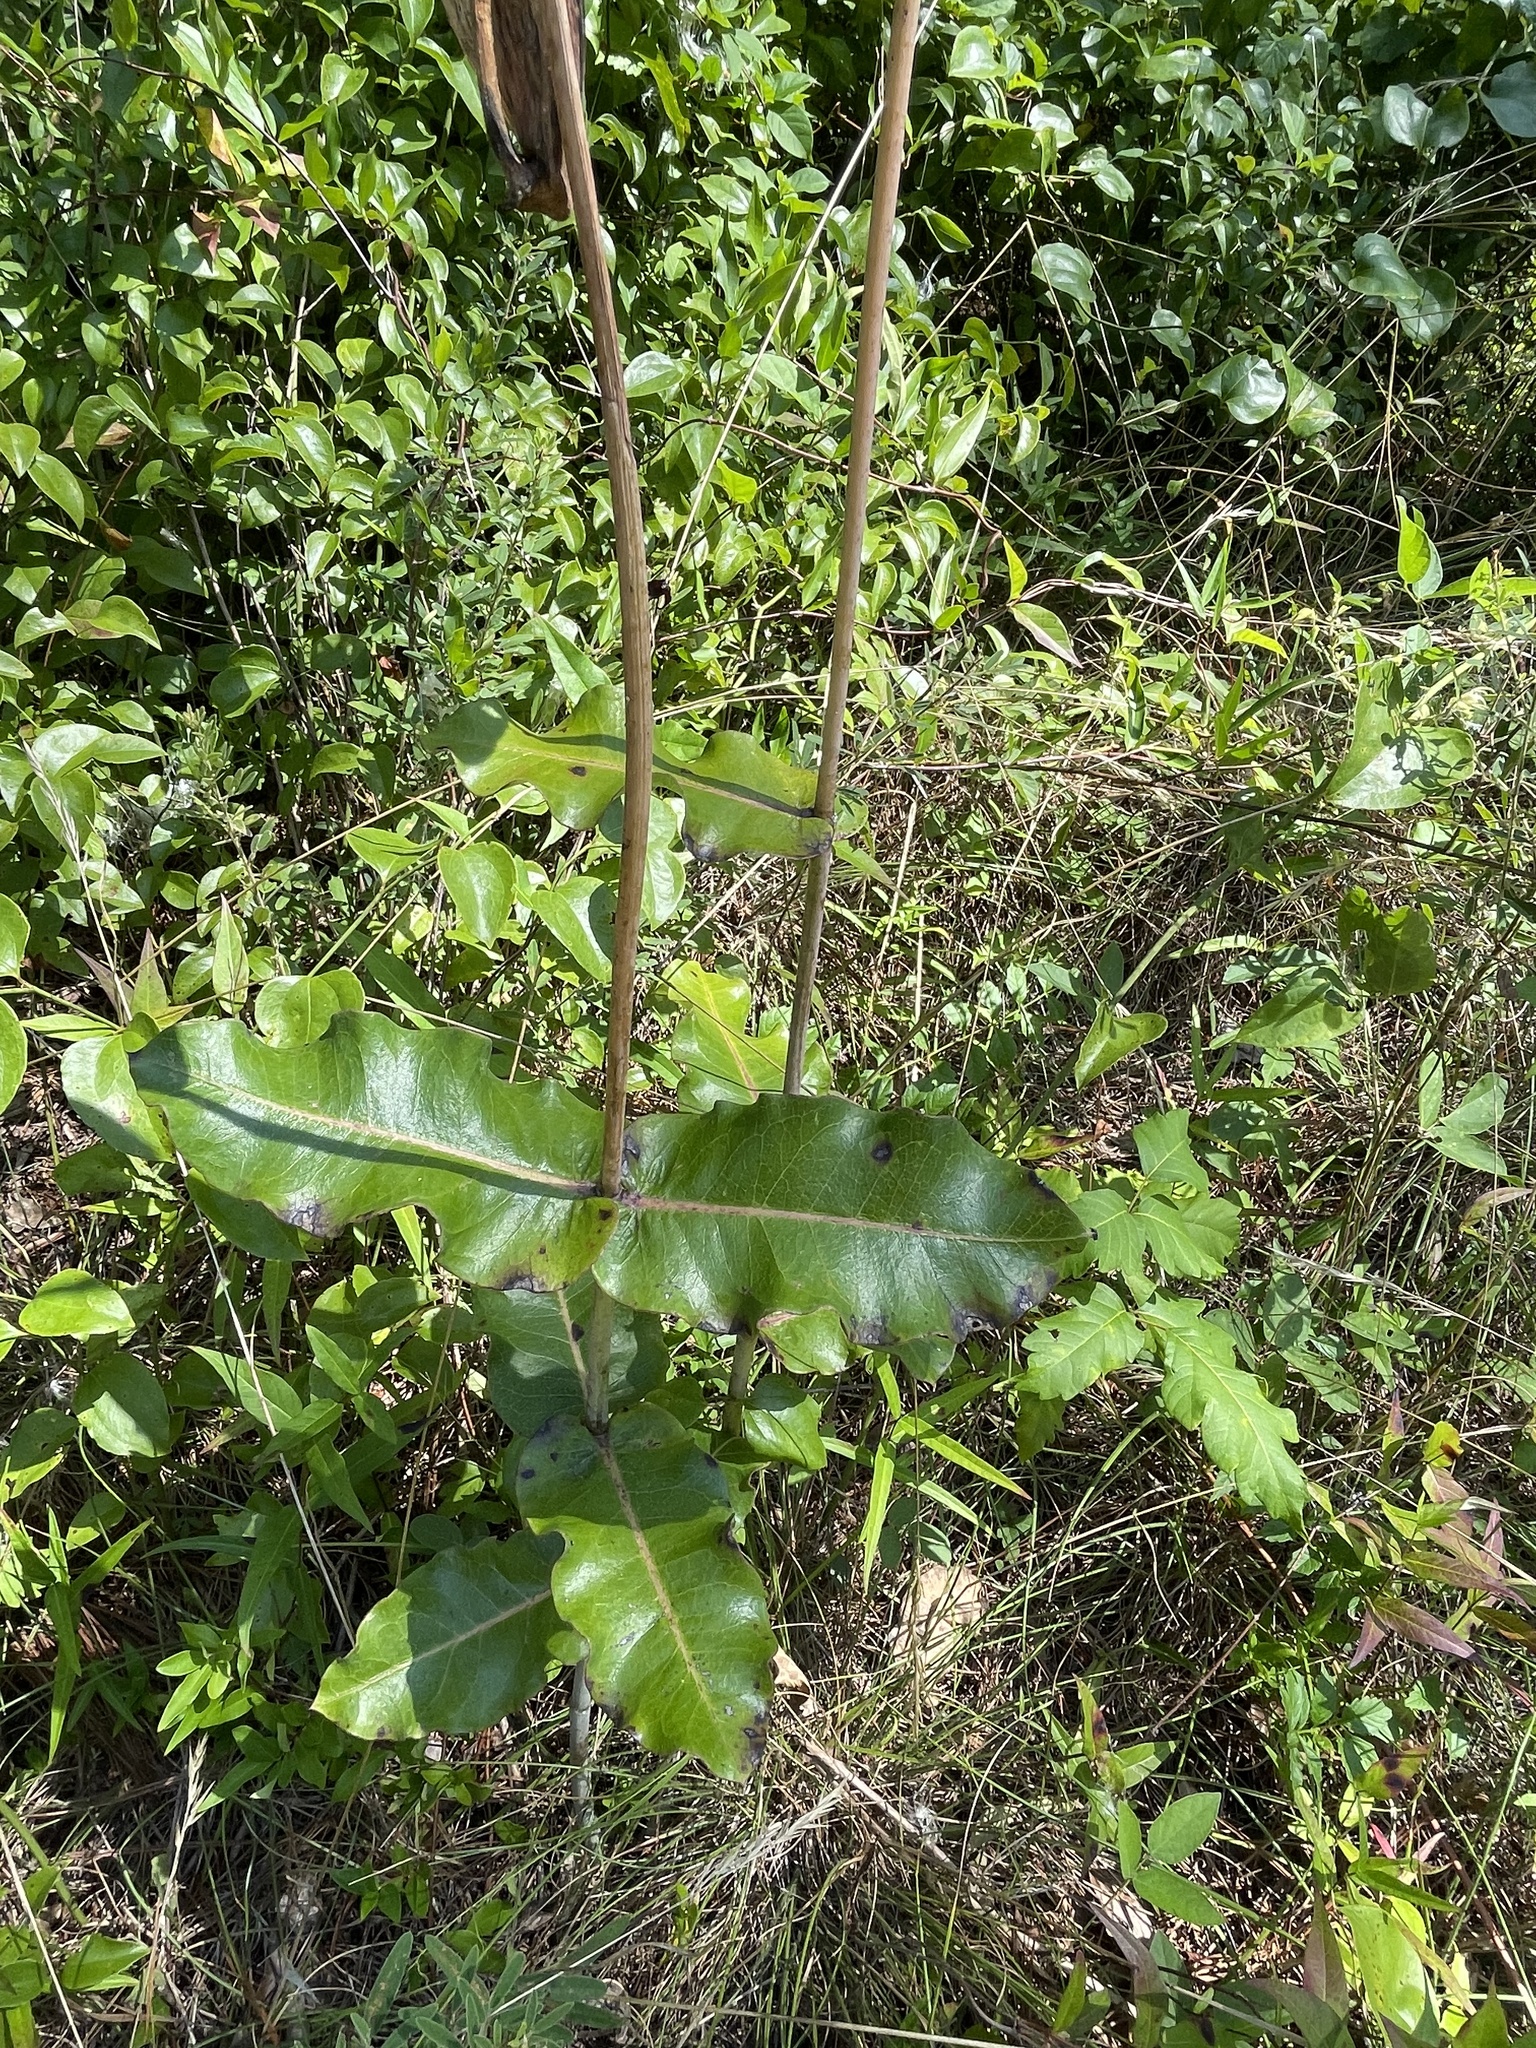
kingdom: Plantae
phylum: Tracheophyta
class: Magnoliopsida
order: Gentianales
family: Apocynaceae
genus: Asclepias
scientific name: Asclepias amplexicaulis
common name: Blunt-leaf milkweed
